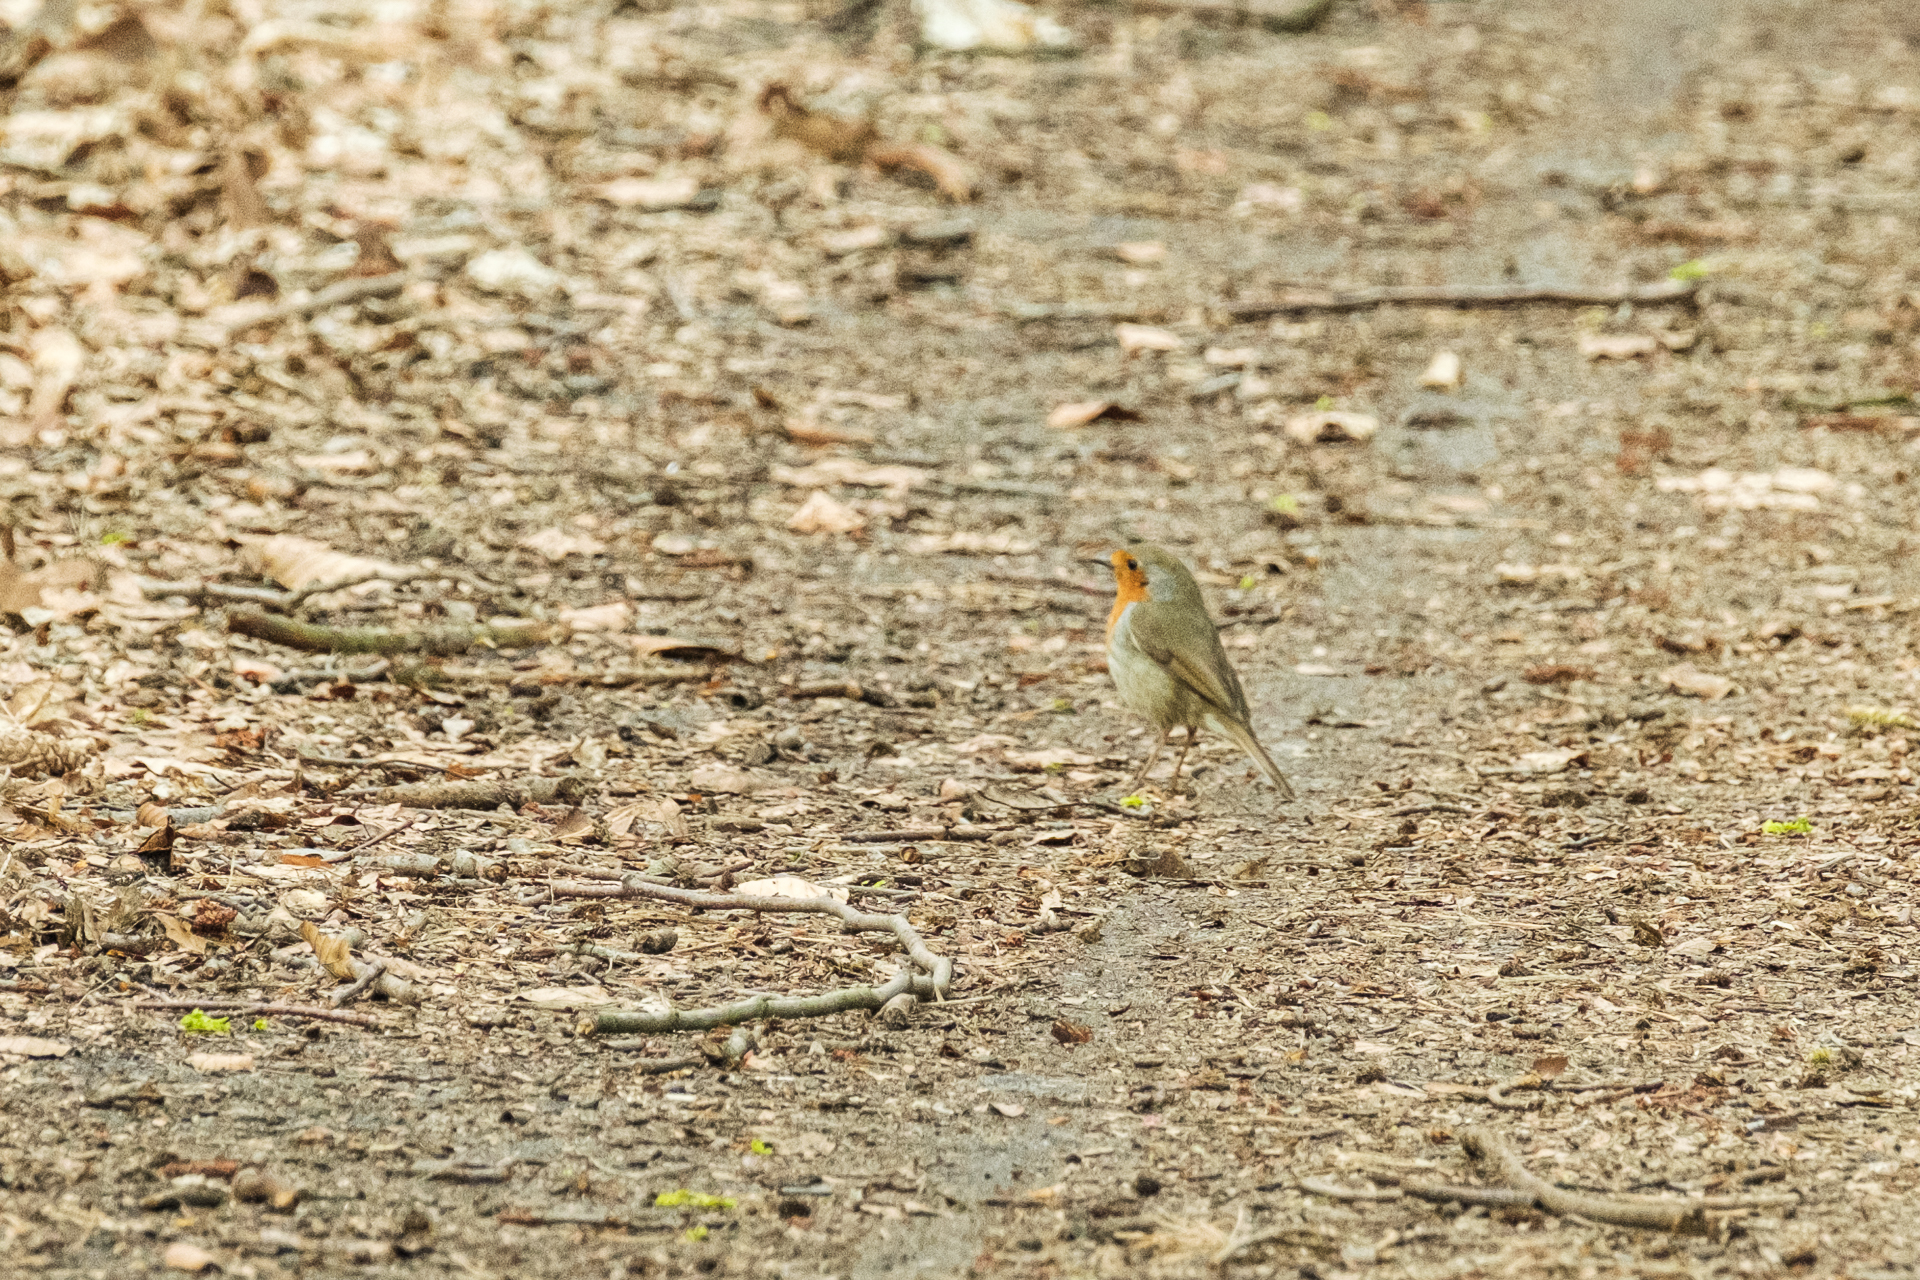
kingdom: Animalia
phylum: Chordata
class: Aves
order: Passeriformes
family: Muscicapidae
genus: Erithacus
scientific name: Erithacus rubecula
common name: European robin
